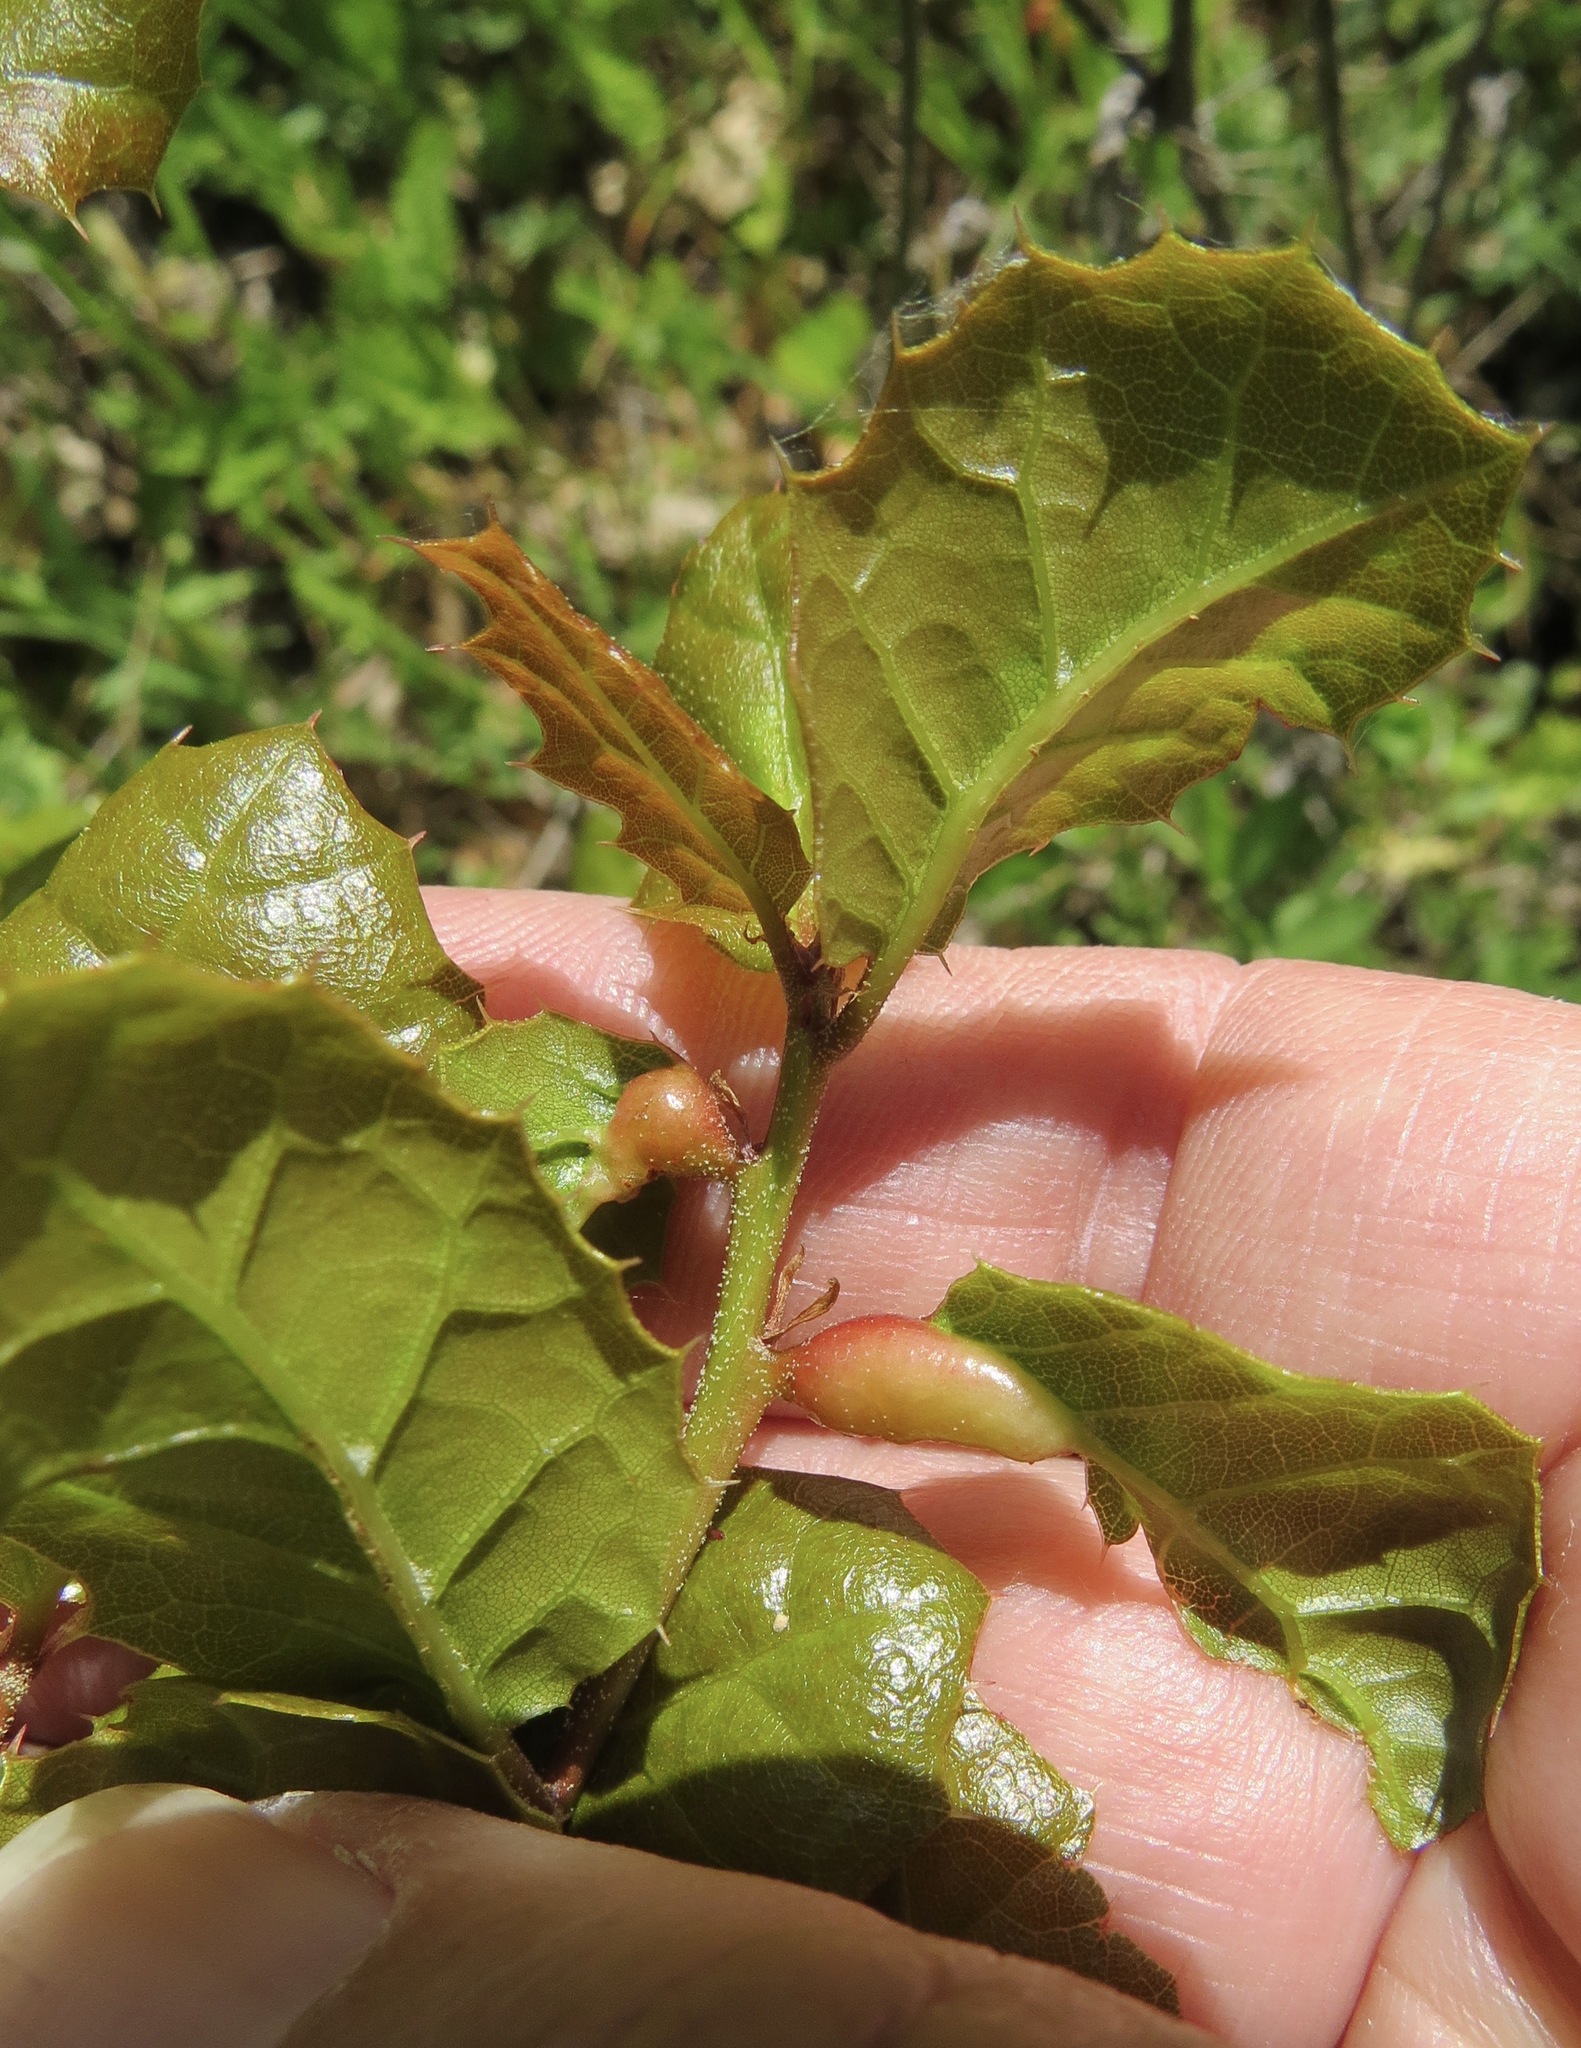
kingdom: Animalia
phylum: Arthropoda
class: Insecta
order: Hymenoptera
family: Cynipidae
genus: Melikaiella
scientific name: Melikaiella
